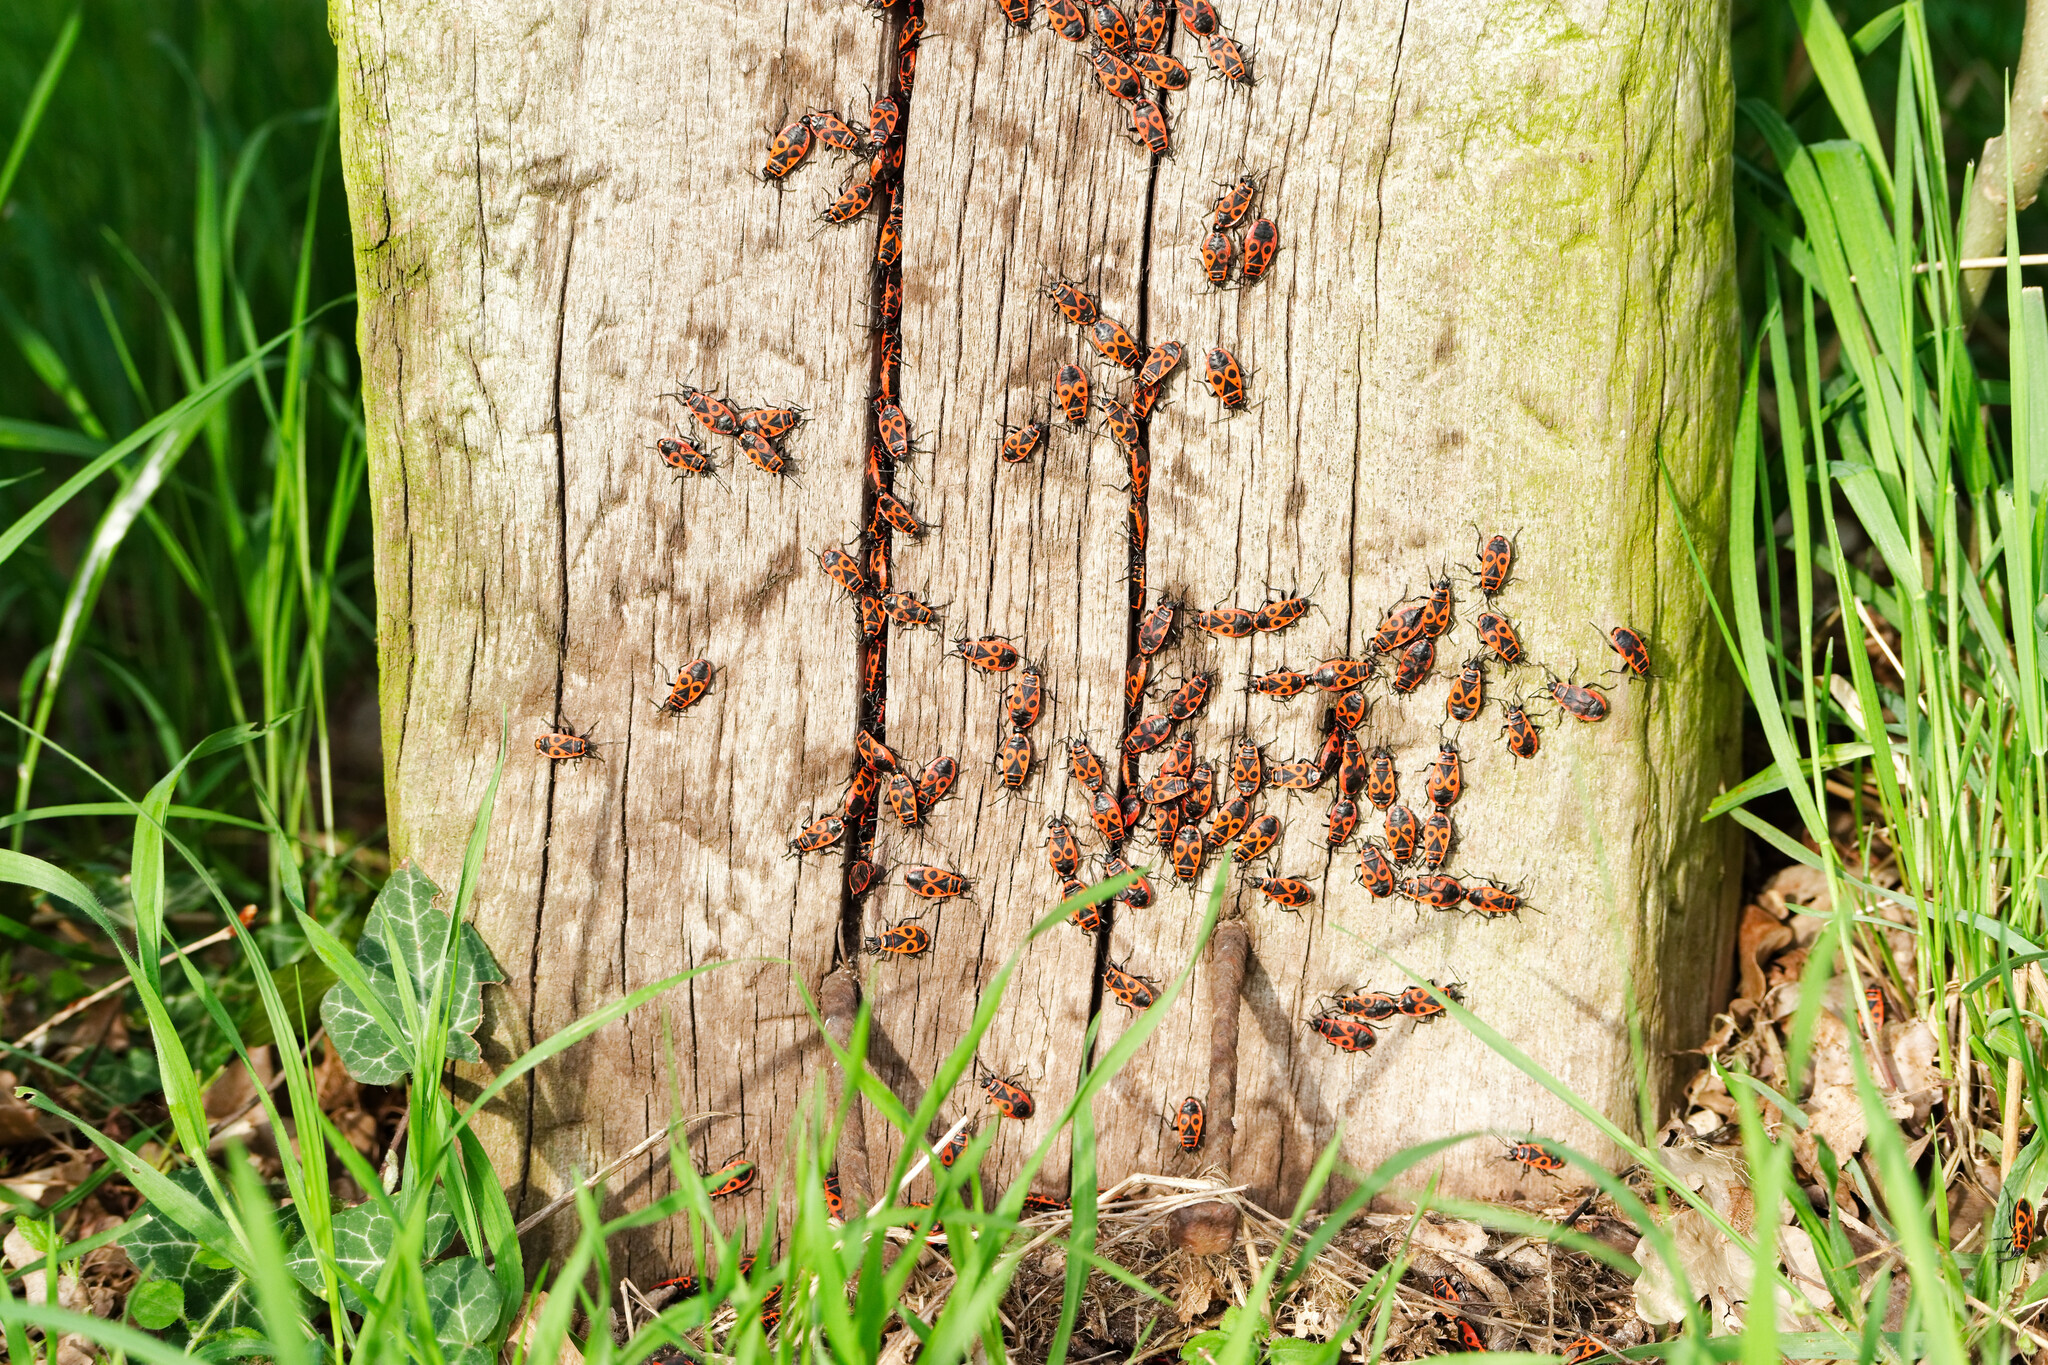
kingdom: Animalia
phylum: Arthropoda
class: Insecta
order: Hemiptera
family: Pyrrhocoridae
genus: Pyrrhocoris
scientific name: Pyrrhocoris apterus
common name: Firebug
